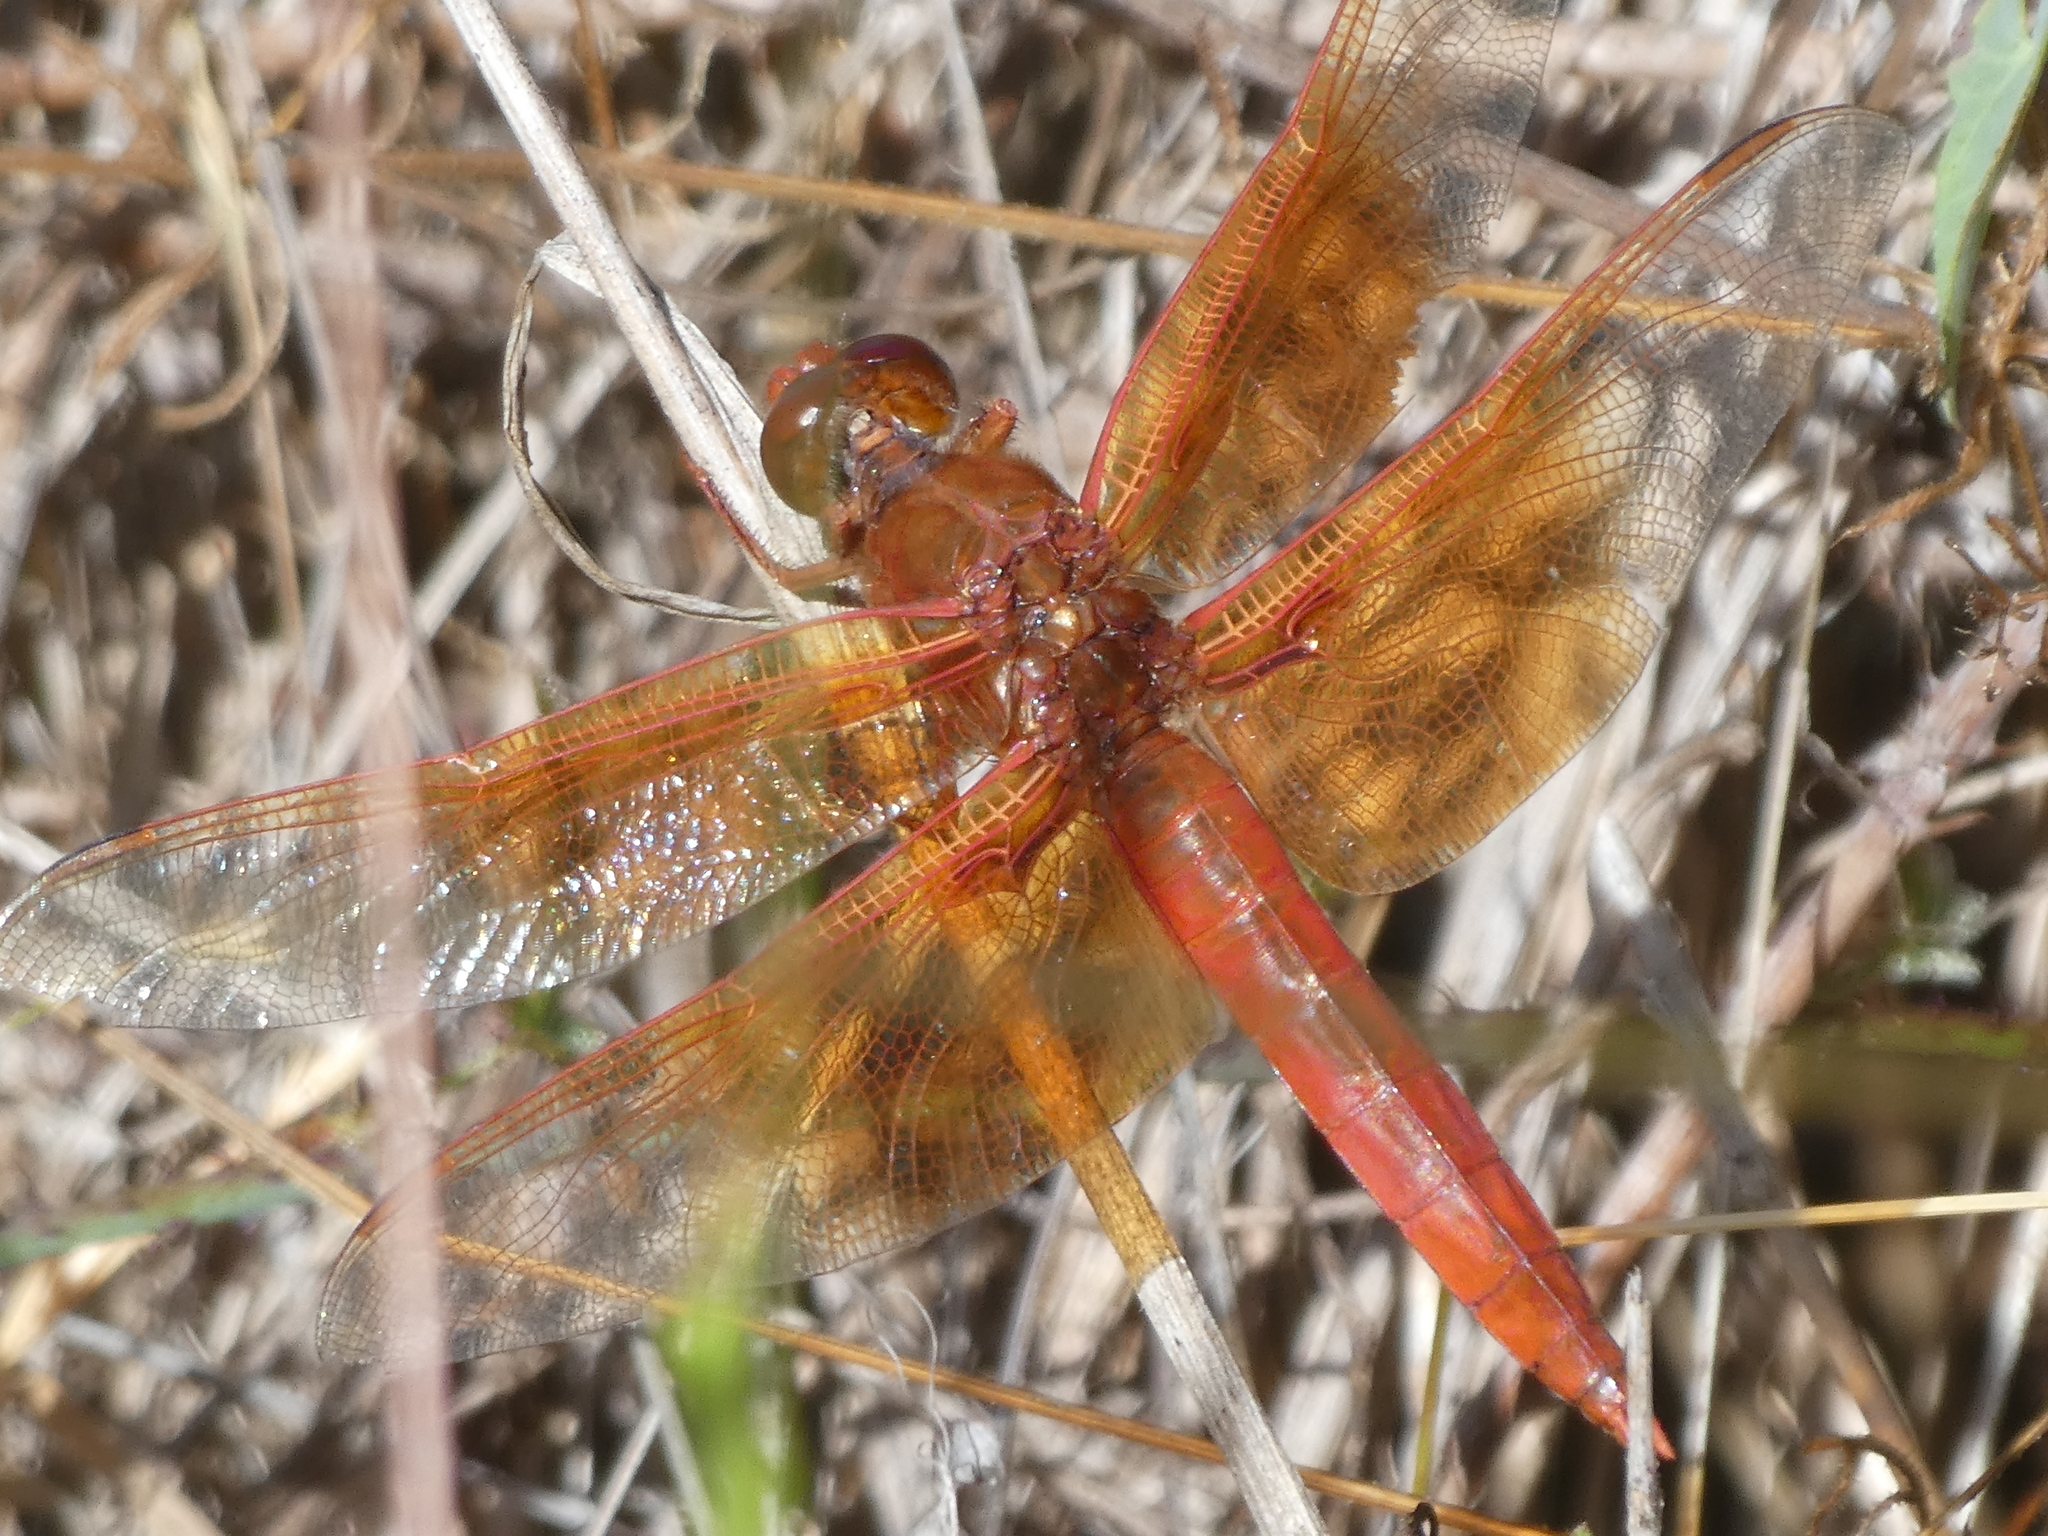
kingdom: Animalia
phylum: Arthropoda
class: Insecta
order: Odonata
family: Libellulidae
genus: Libellula
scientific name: Libellula saturata
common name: Flame skimmer
